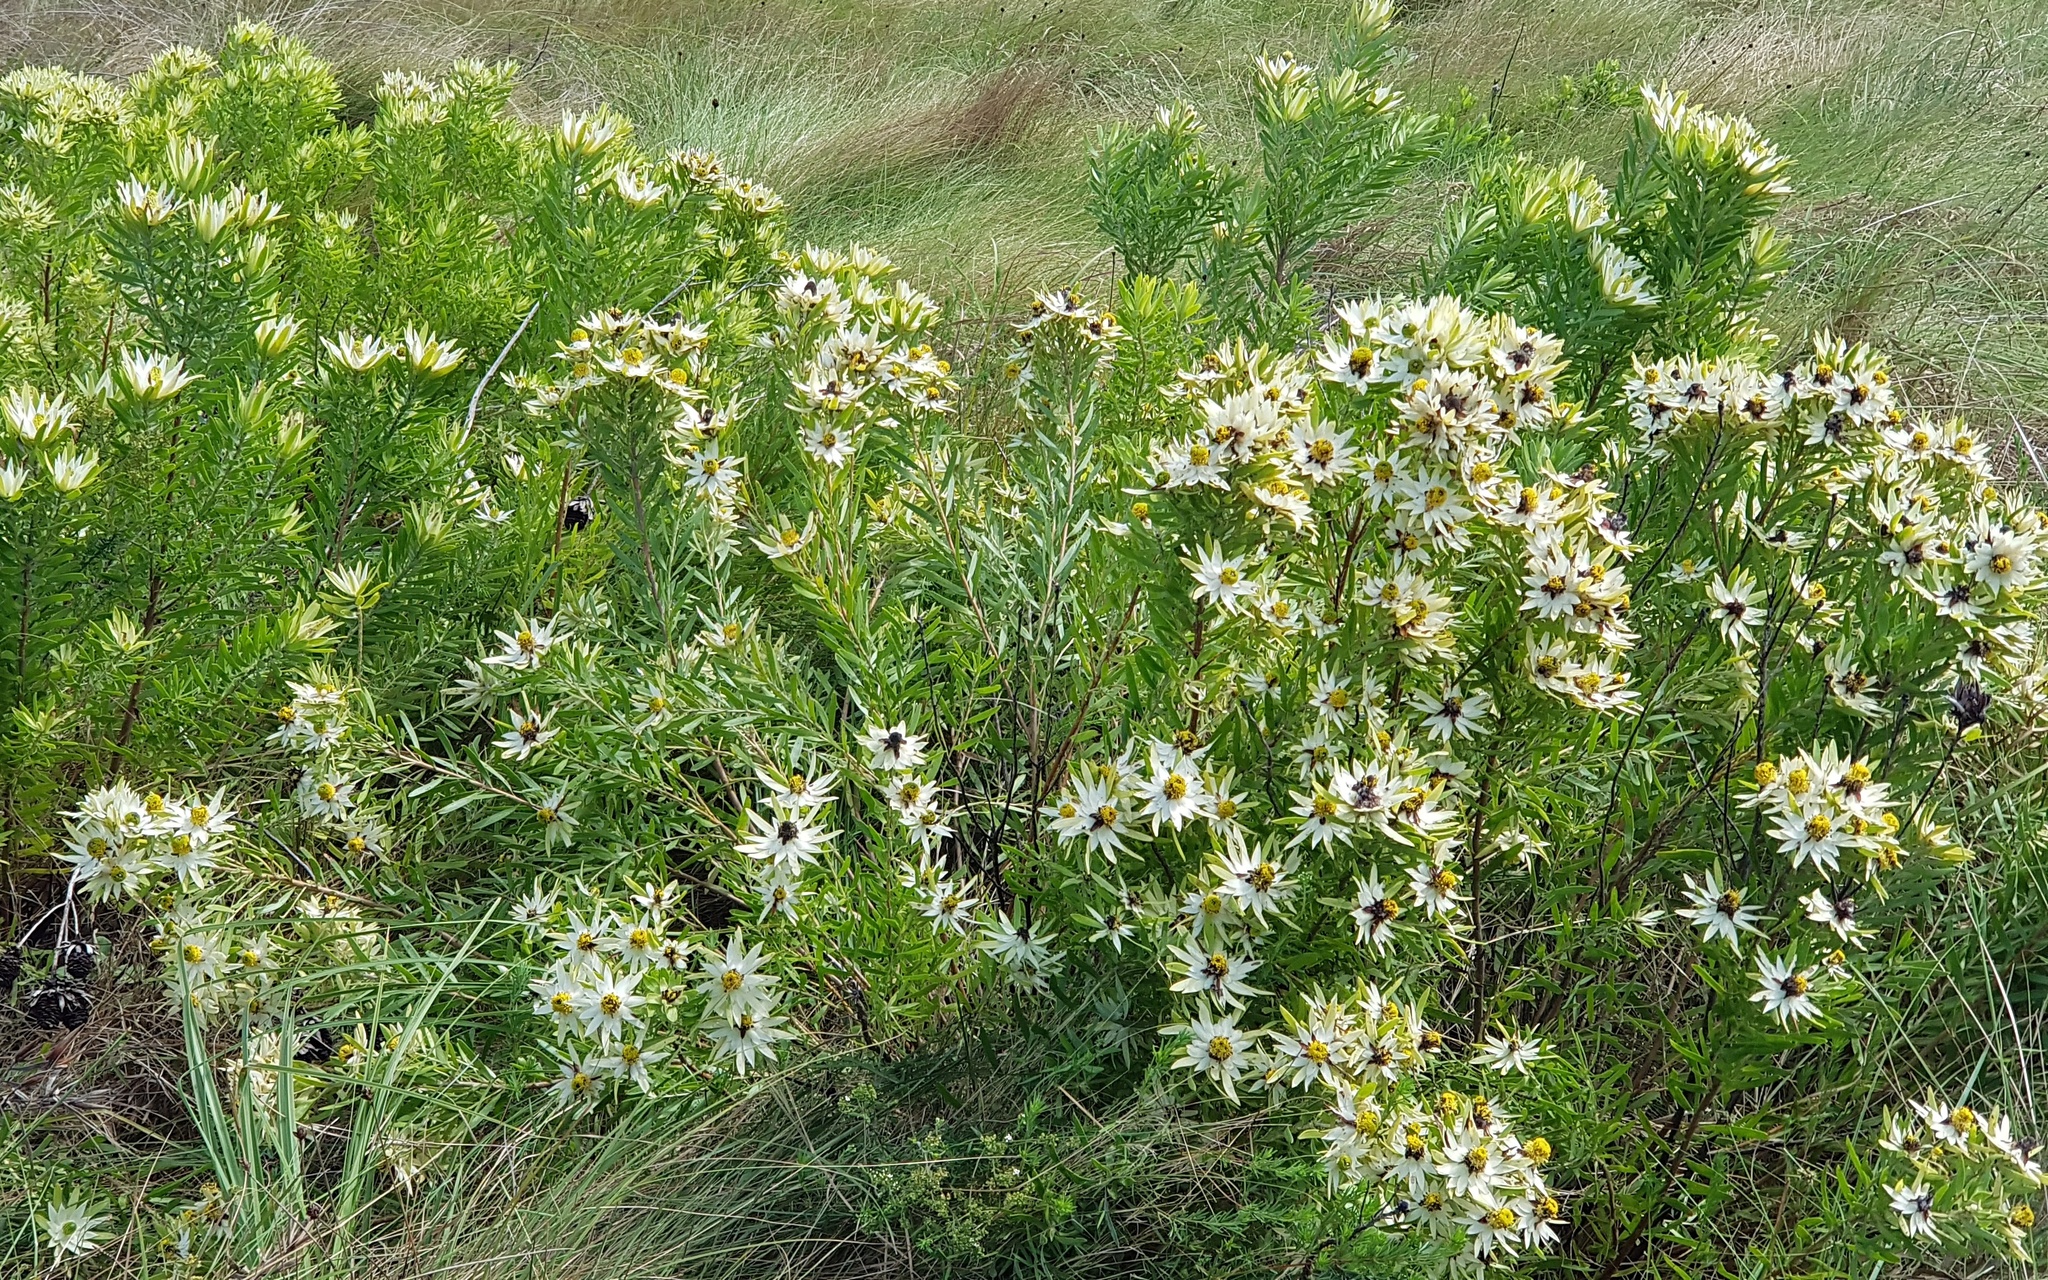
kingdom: Plantae
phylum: Tracheophyta
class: Magnoliopsida
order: Proteales
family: Proteaceae
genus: Leucadendron
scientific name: Leucadendron spissifolium
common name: Spear-leaf conebush
